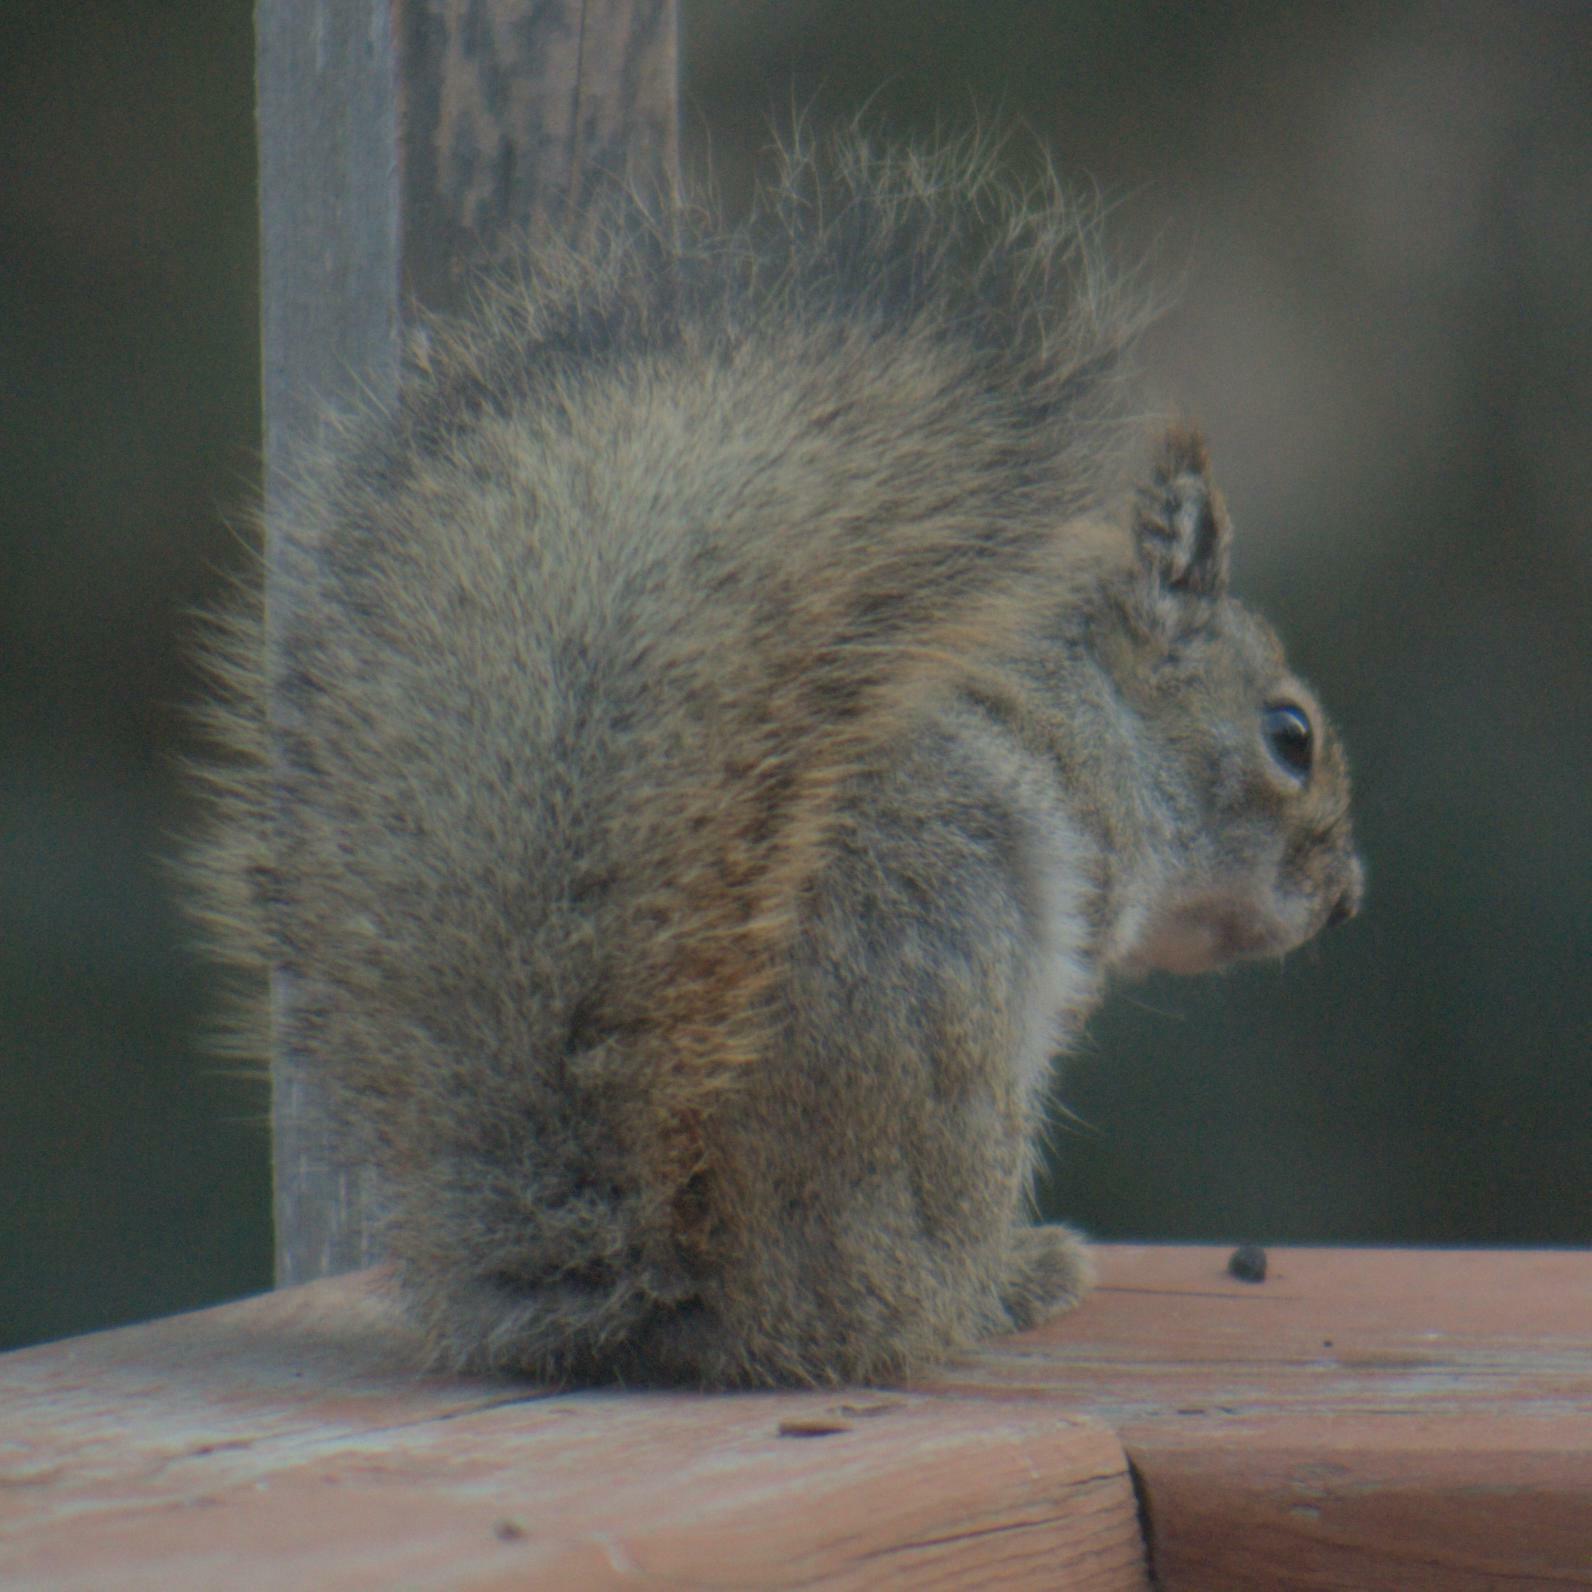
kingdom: Animalia
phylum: Chordata
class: Mammalia
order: Rodentia
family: Sciuridae
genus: Tamiasciurus
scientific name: Tamiasciurus hudsonicus
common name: Red squirrel
